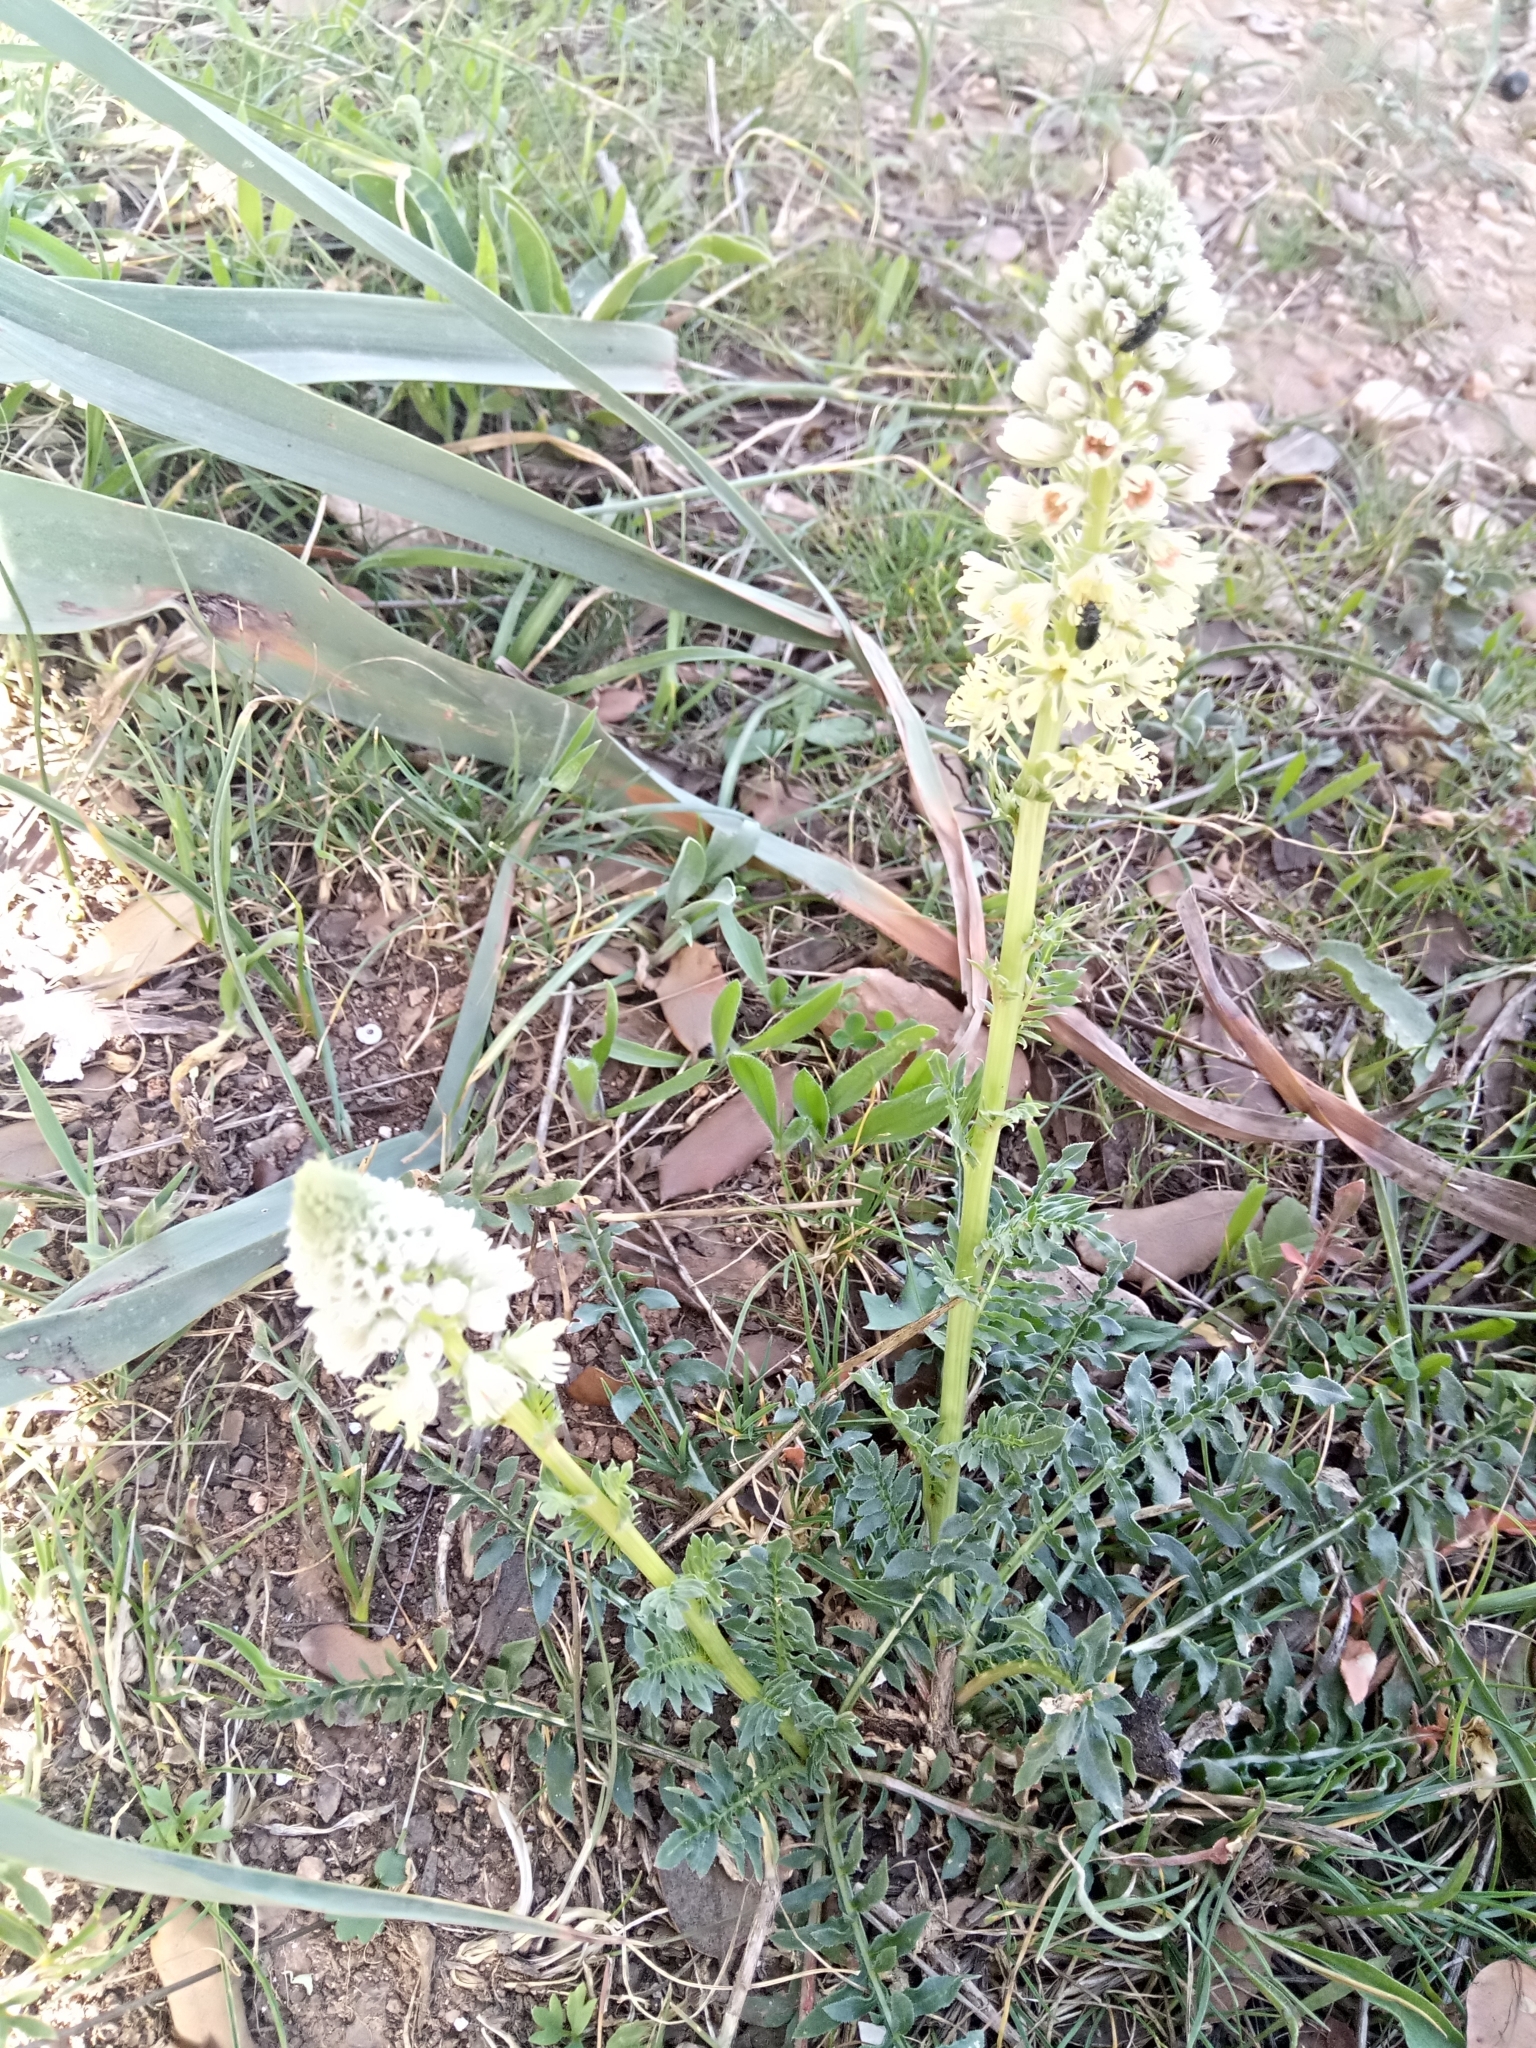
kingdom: Plantae
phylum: Tracheophyta
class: Magnoliopsida
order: Brassicales
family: Resedaceae
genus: Reseda
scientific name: Reseda alba
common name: White mignonette
